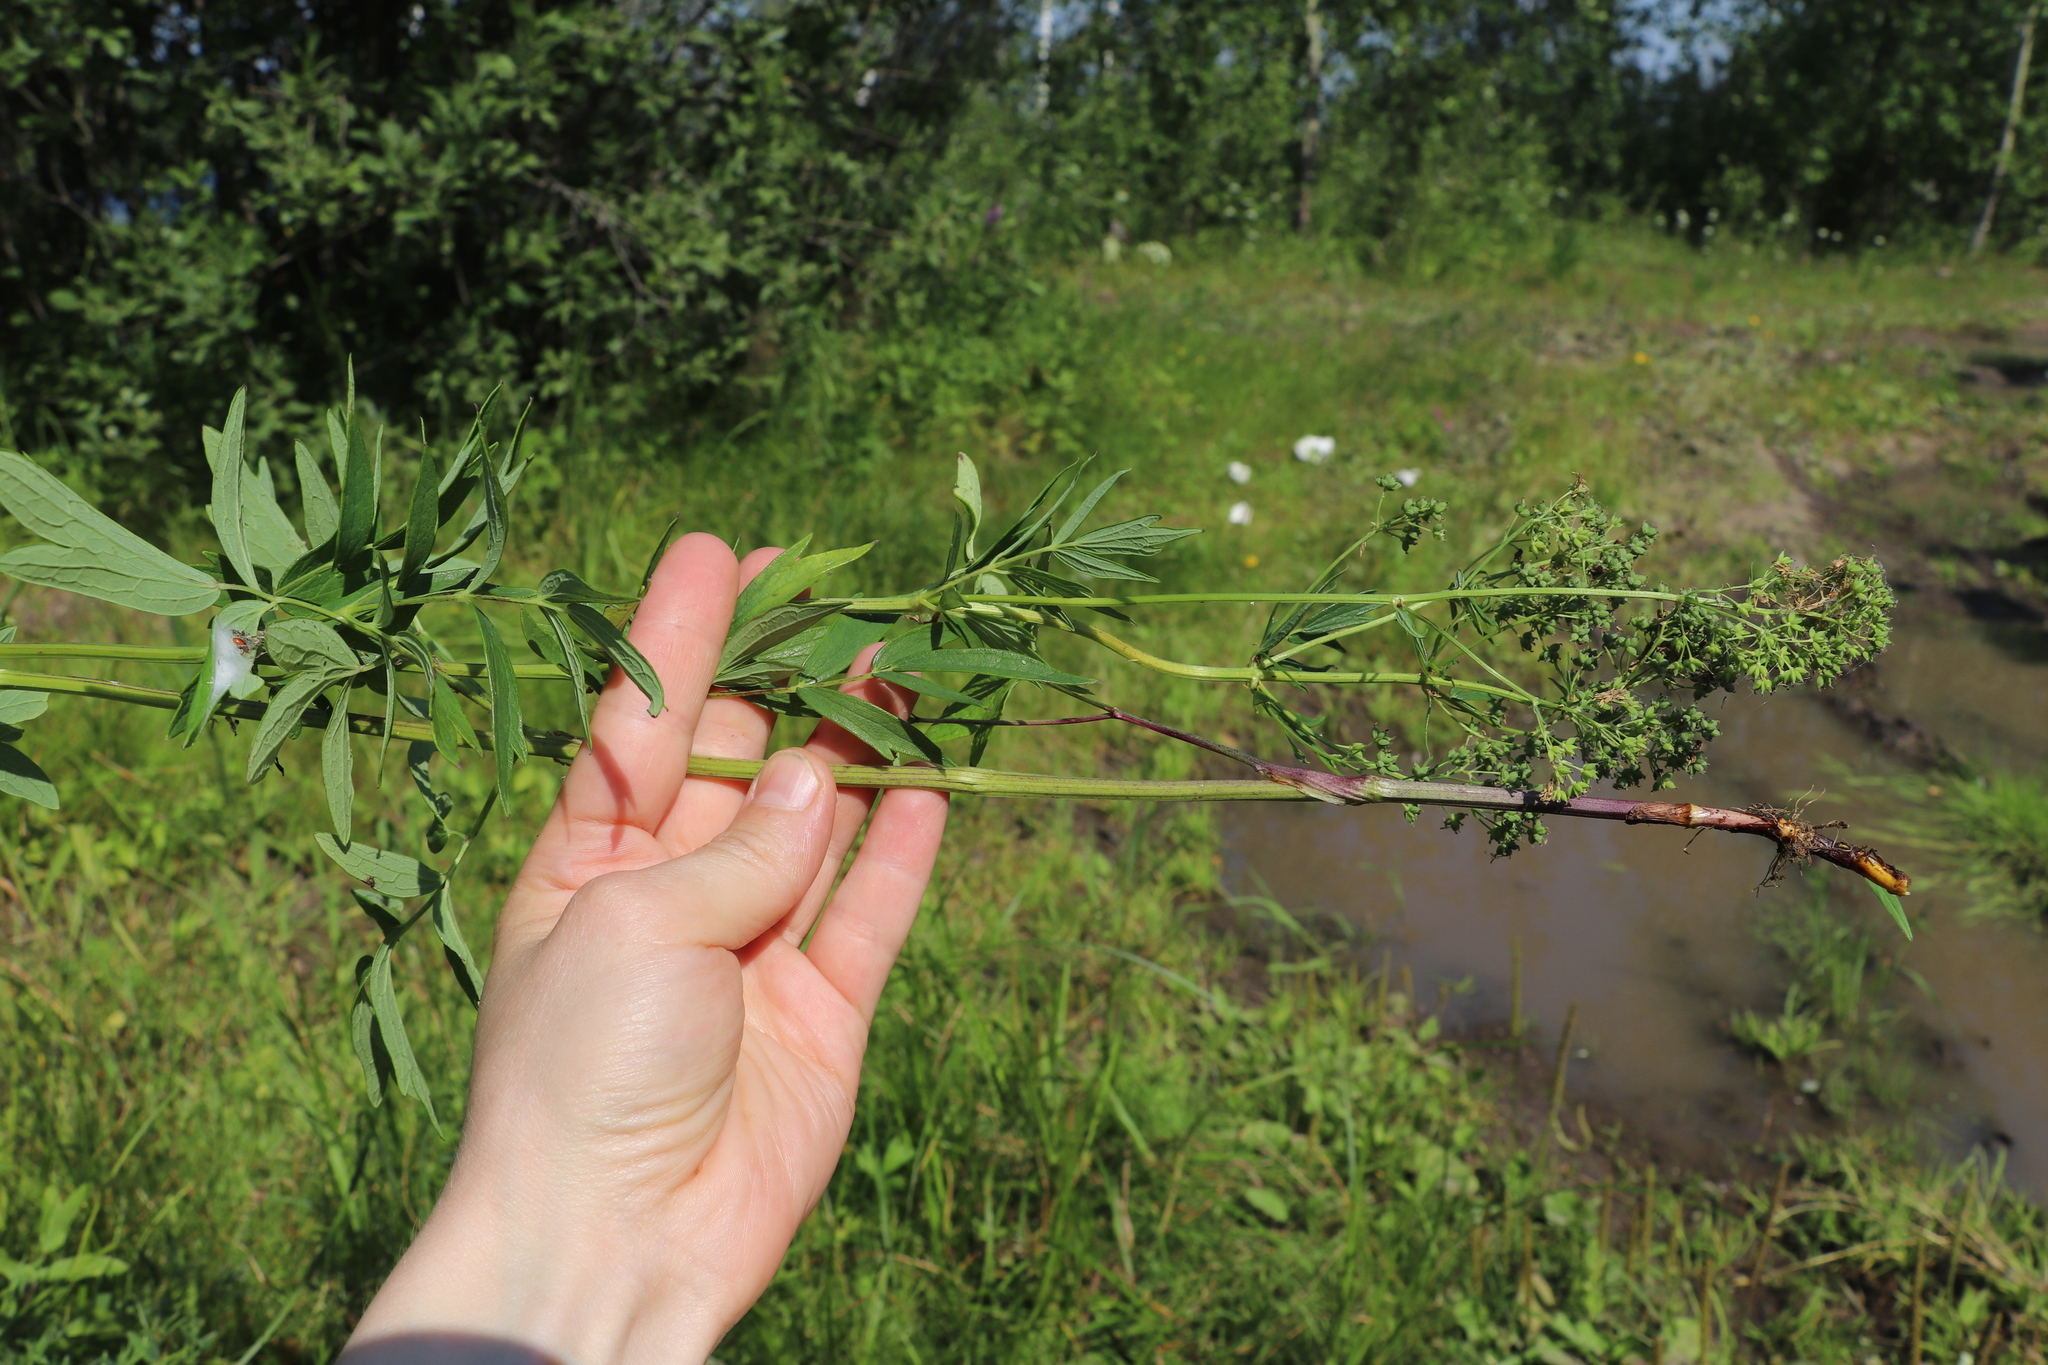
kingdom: Plantae
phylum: Tracheophyta
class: Magnoliopsida
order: Ranunculales
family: Ranunculaceae
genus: Thalictrum
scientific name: Thalictrum flavum
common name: Common meadow-rue
